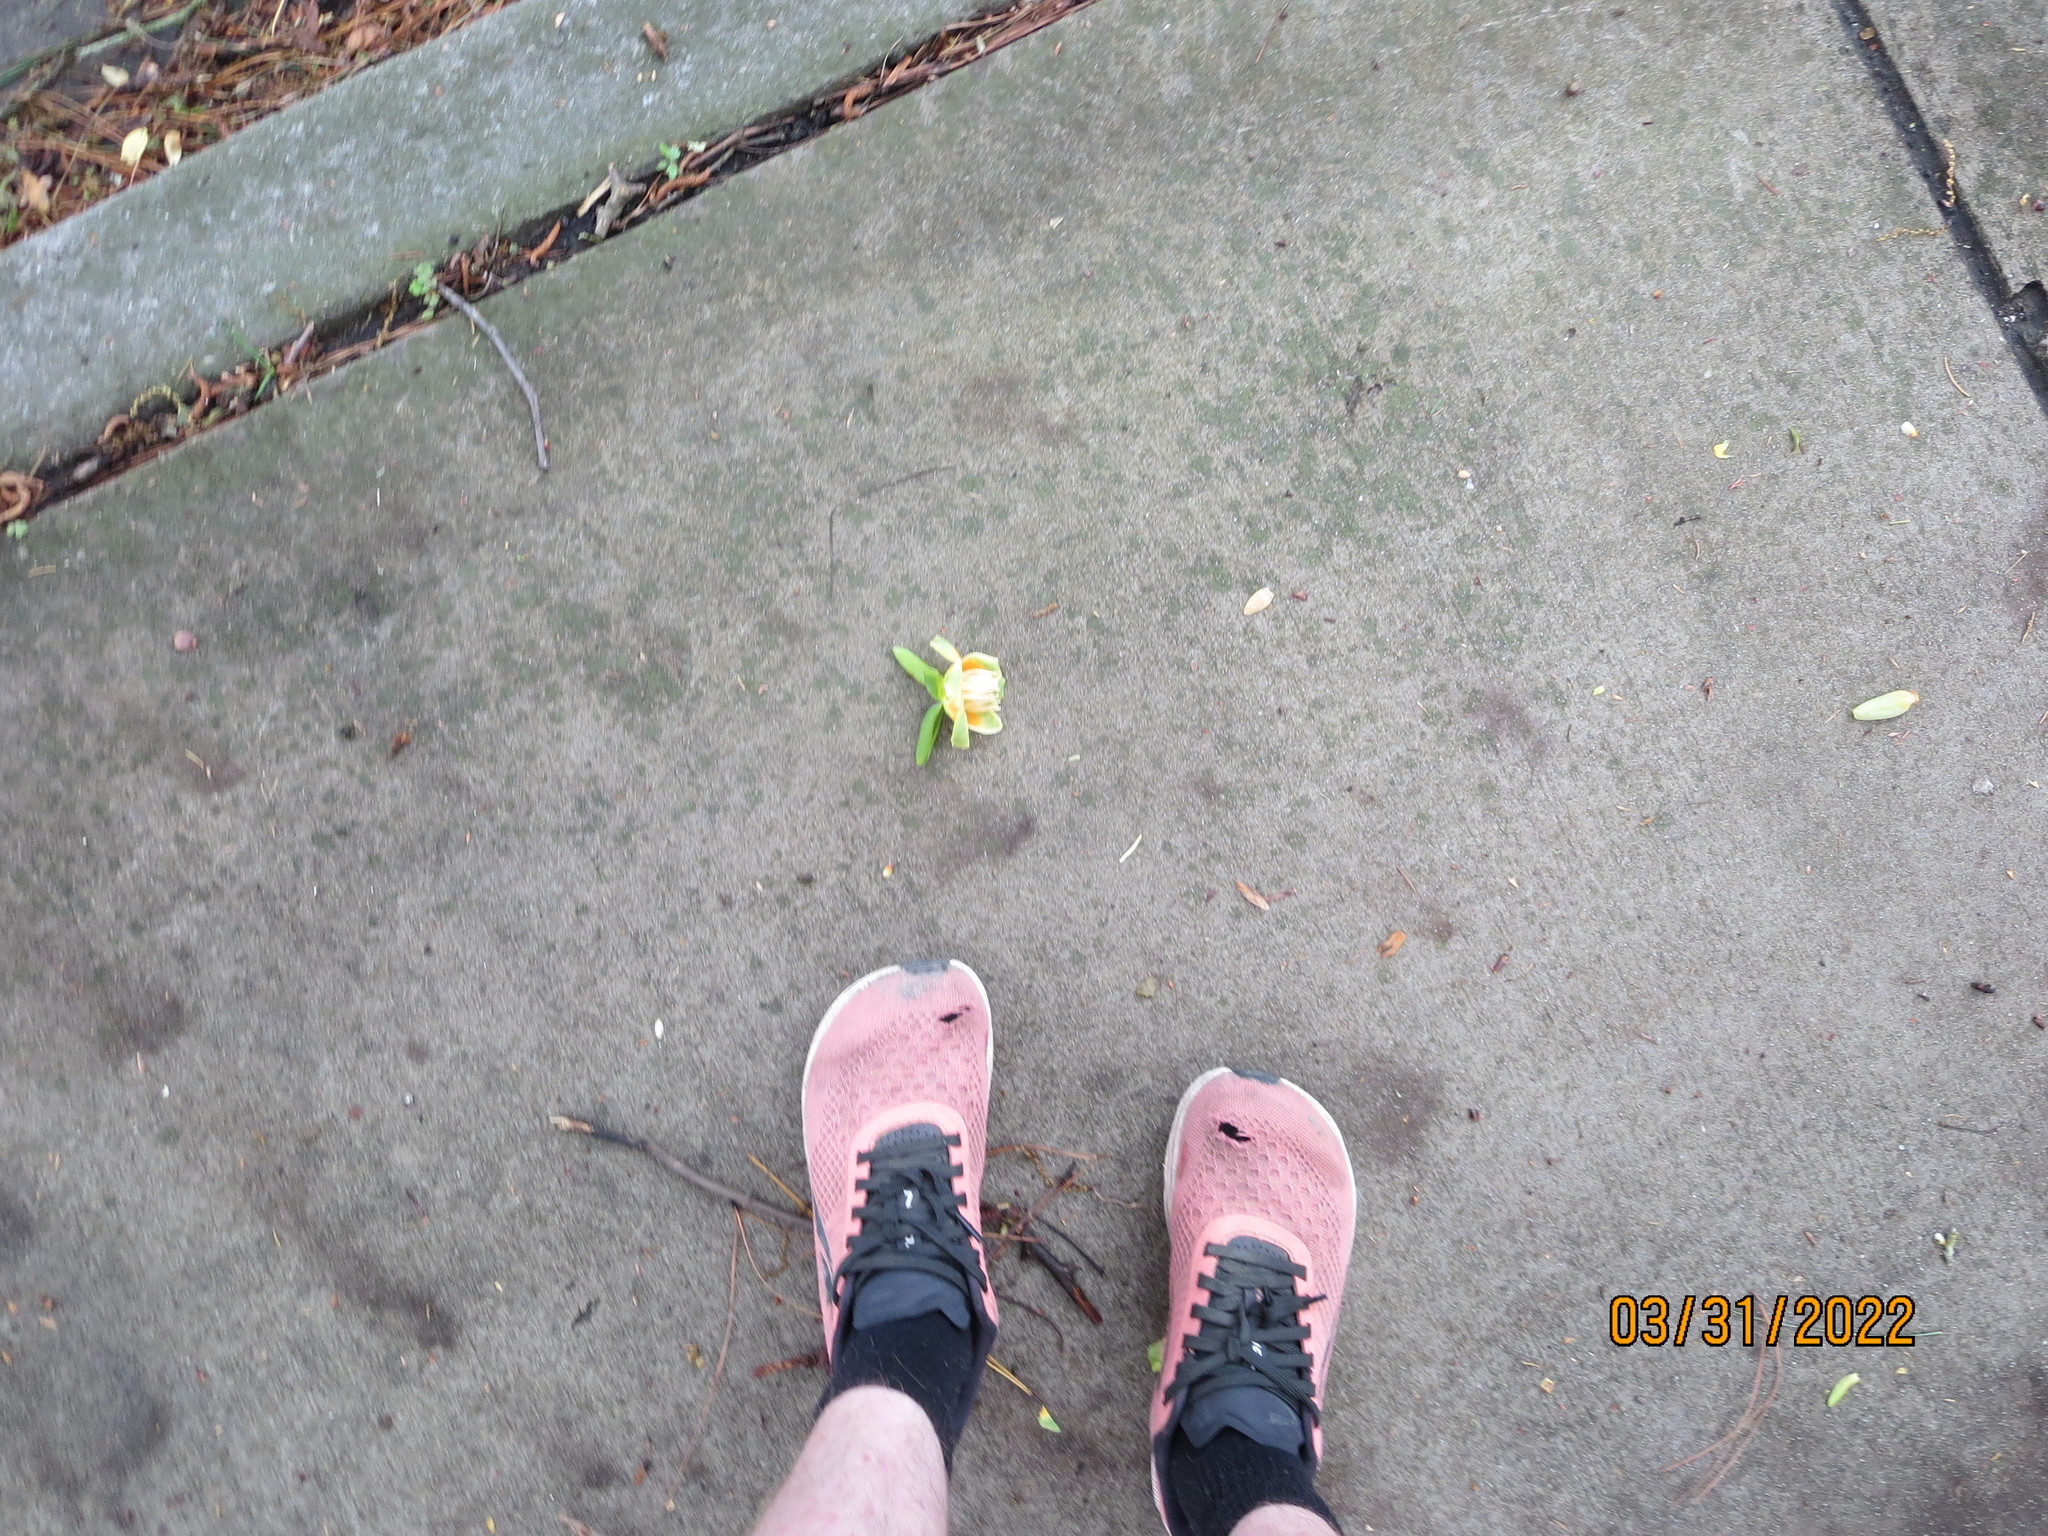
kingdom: Plantae
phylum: Tracheophyta
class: Magnoliopsida
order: Magnoliales
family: Magnoliaceae
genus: Liriodendron
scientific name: Liriodendron tulipifera
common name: Tulip tree
